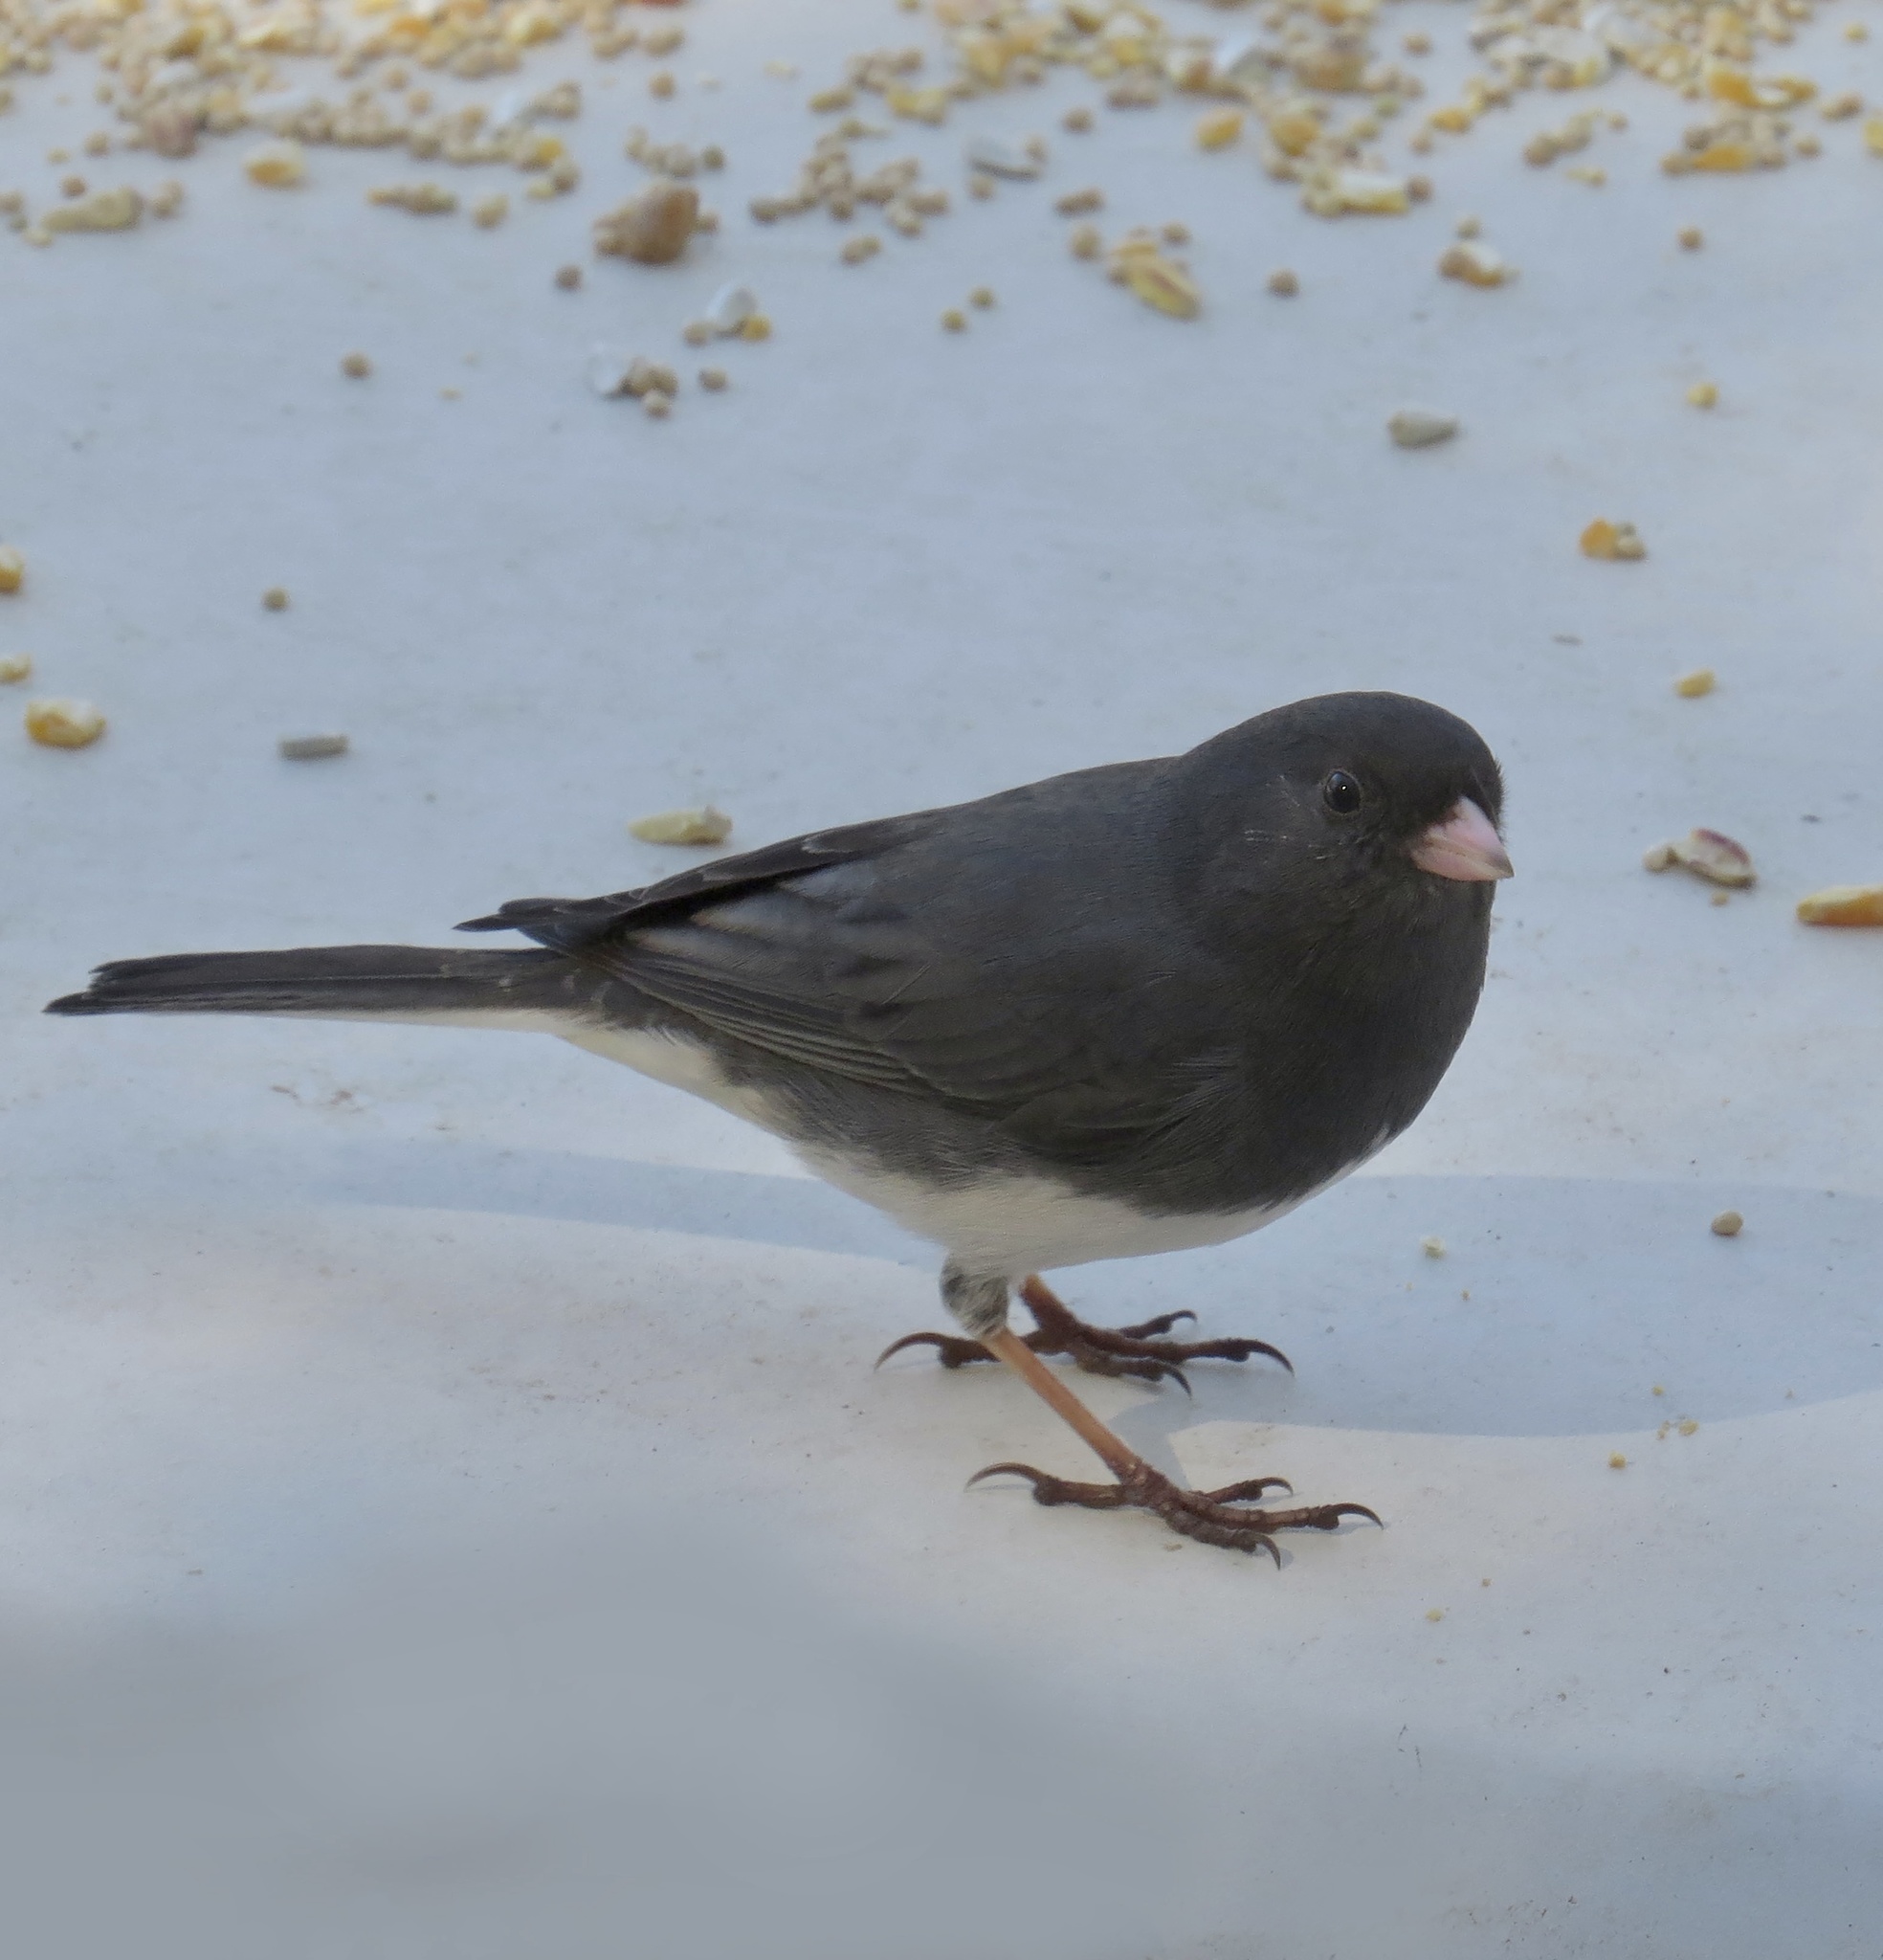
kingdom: Animalia
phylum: Chordata
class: Aves
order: Passeriformes
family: Passerellidae
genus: Junco
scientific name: Junco hyemalis
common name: Dark-eyed junco
